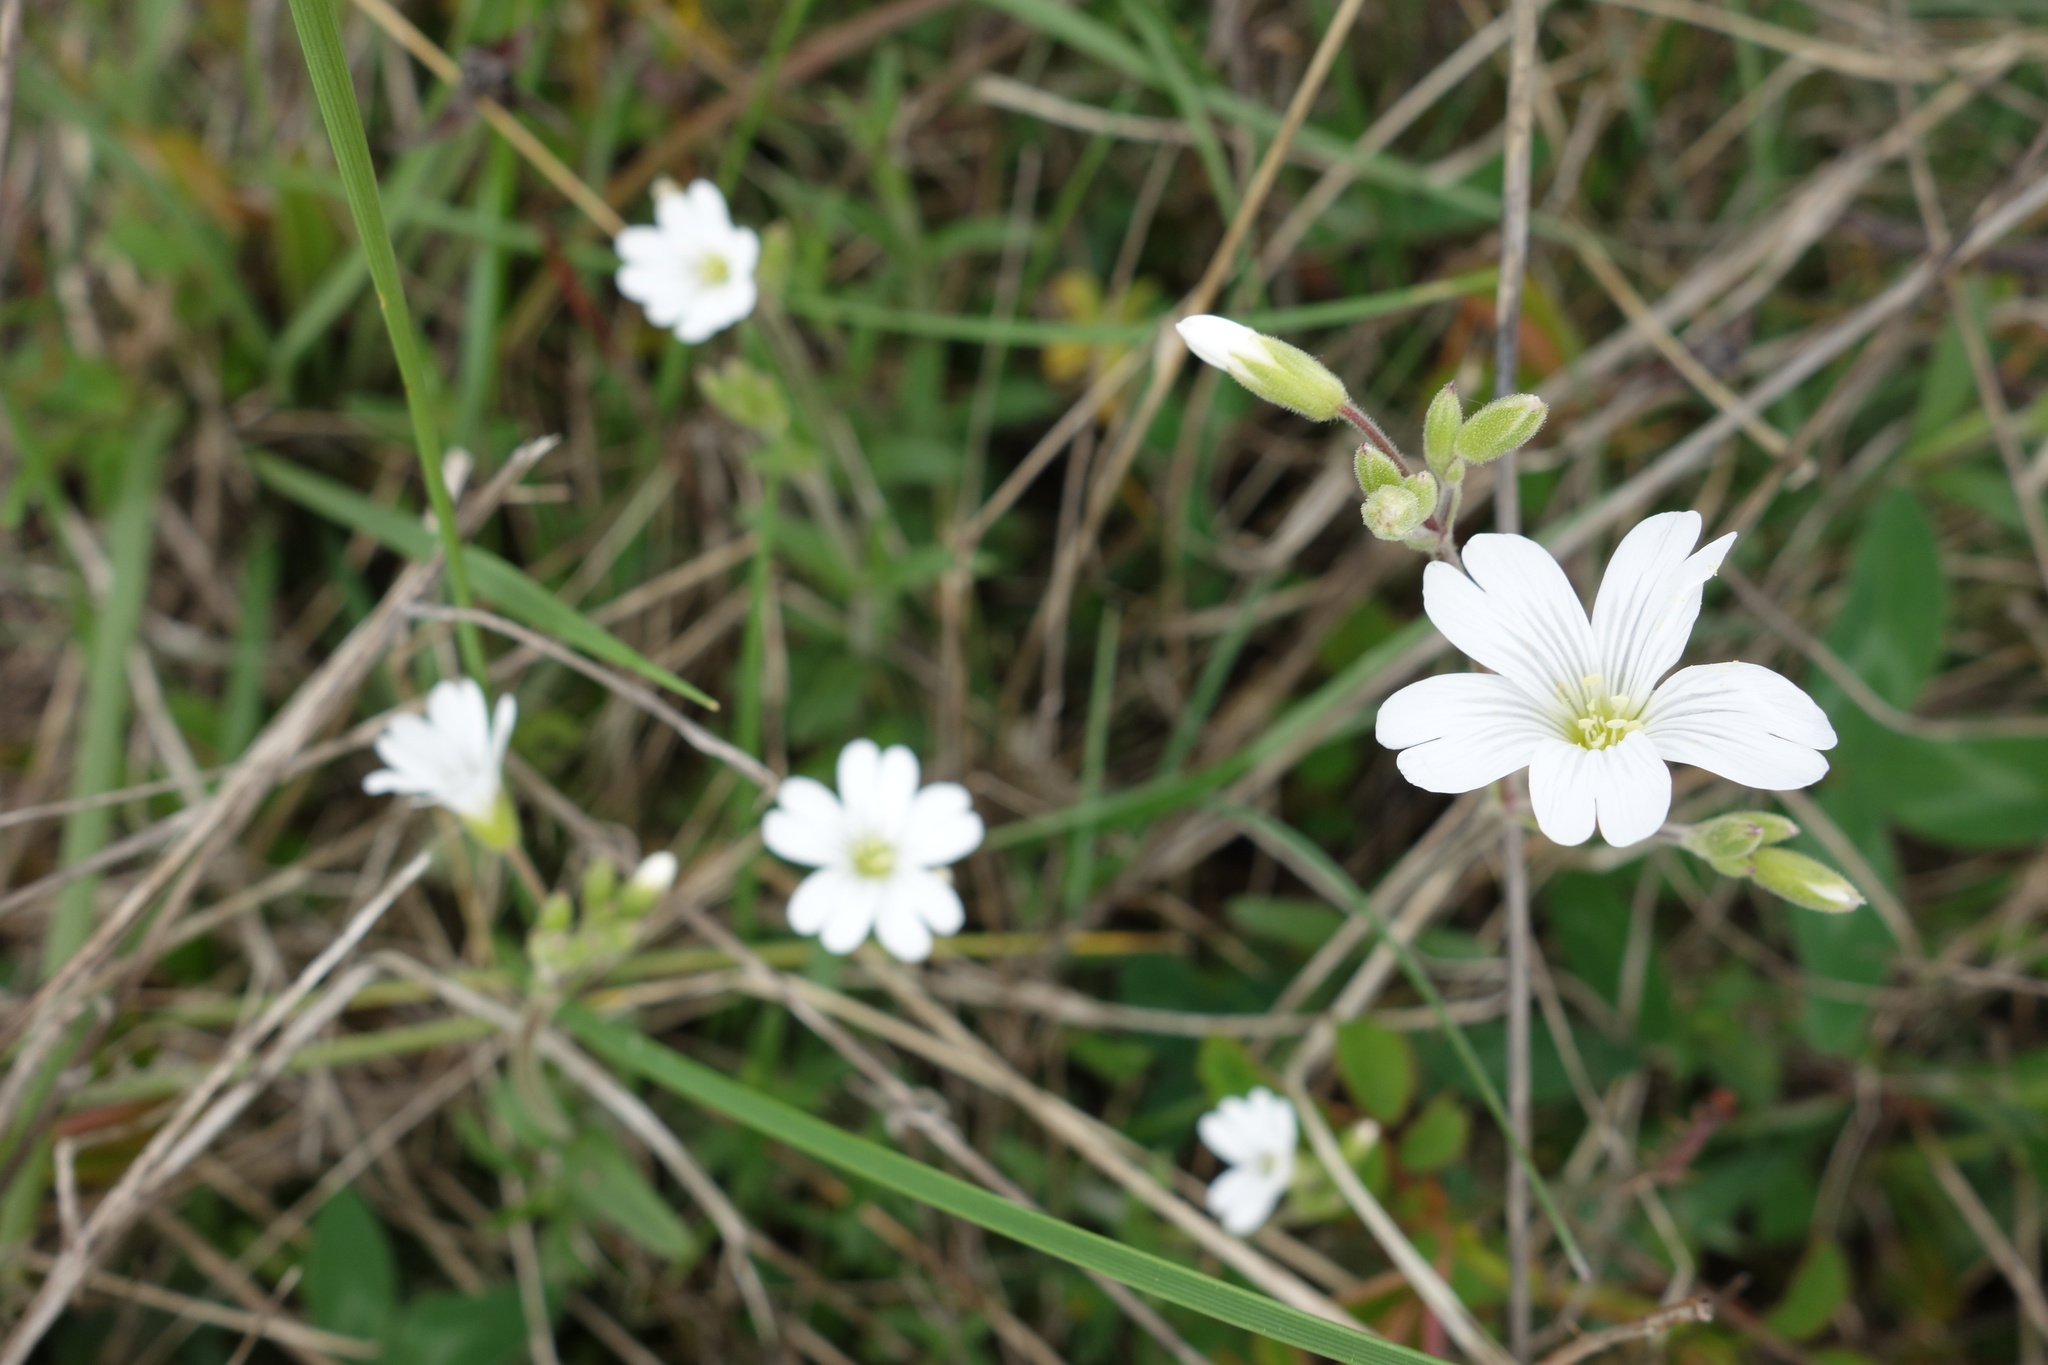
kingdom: Plantae
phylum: Tracheophyta
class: Magnoliopsida
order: Caryophyllales
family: Caryophyllaceae
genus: Silene
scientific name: Silene latifolia
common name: White campion
